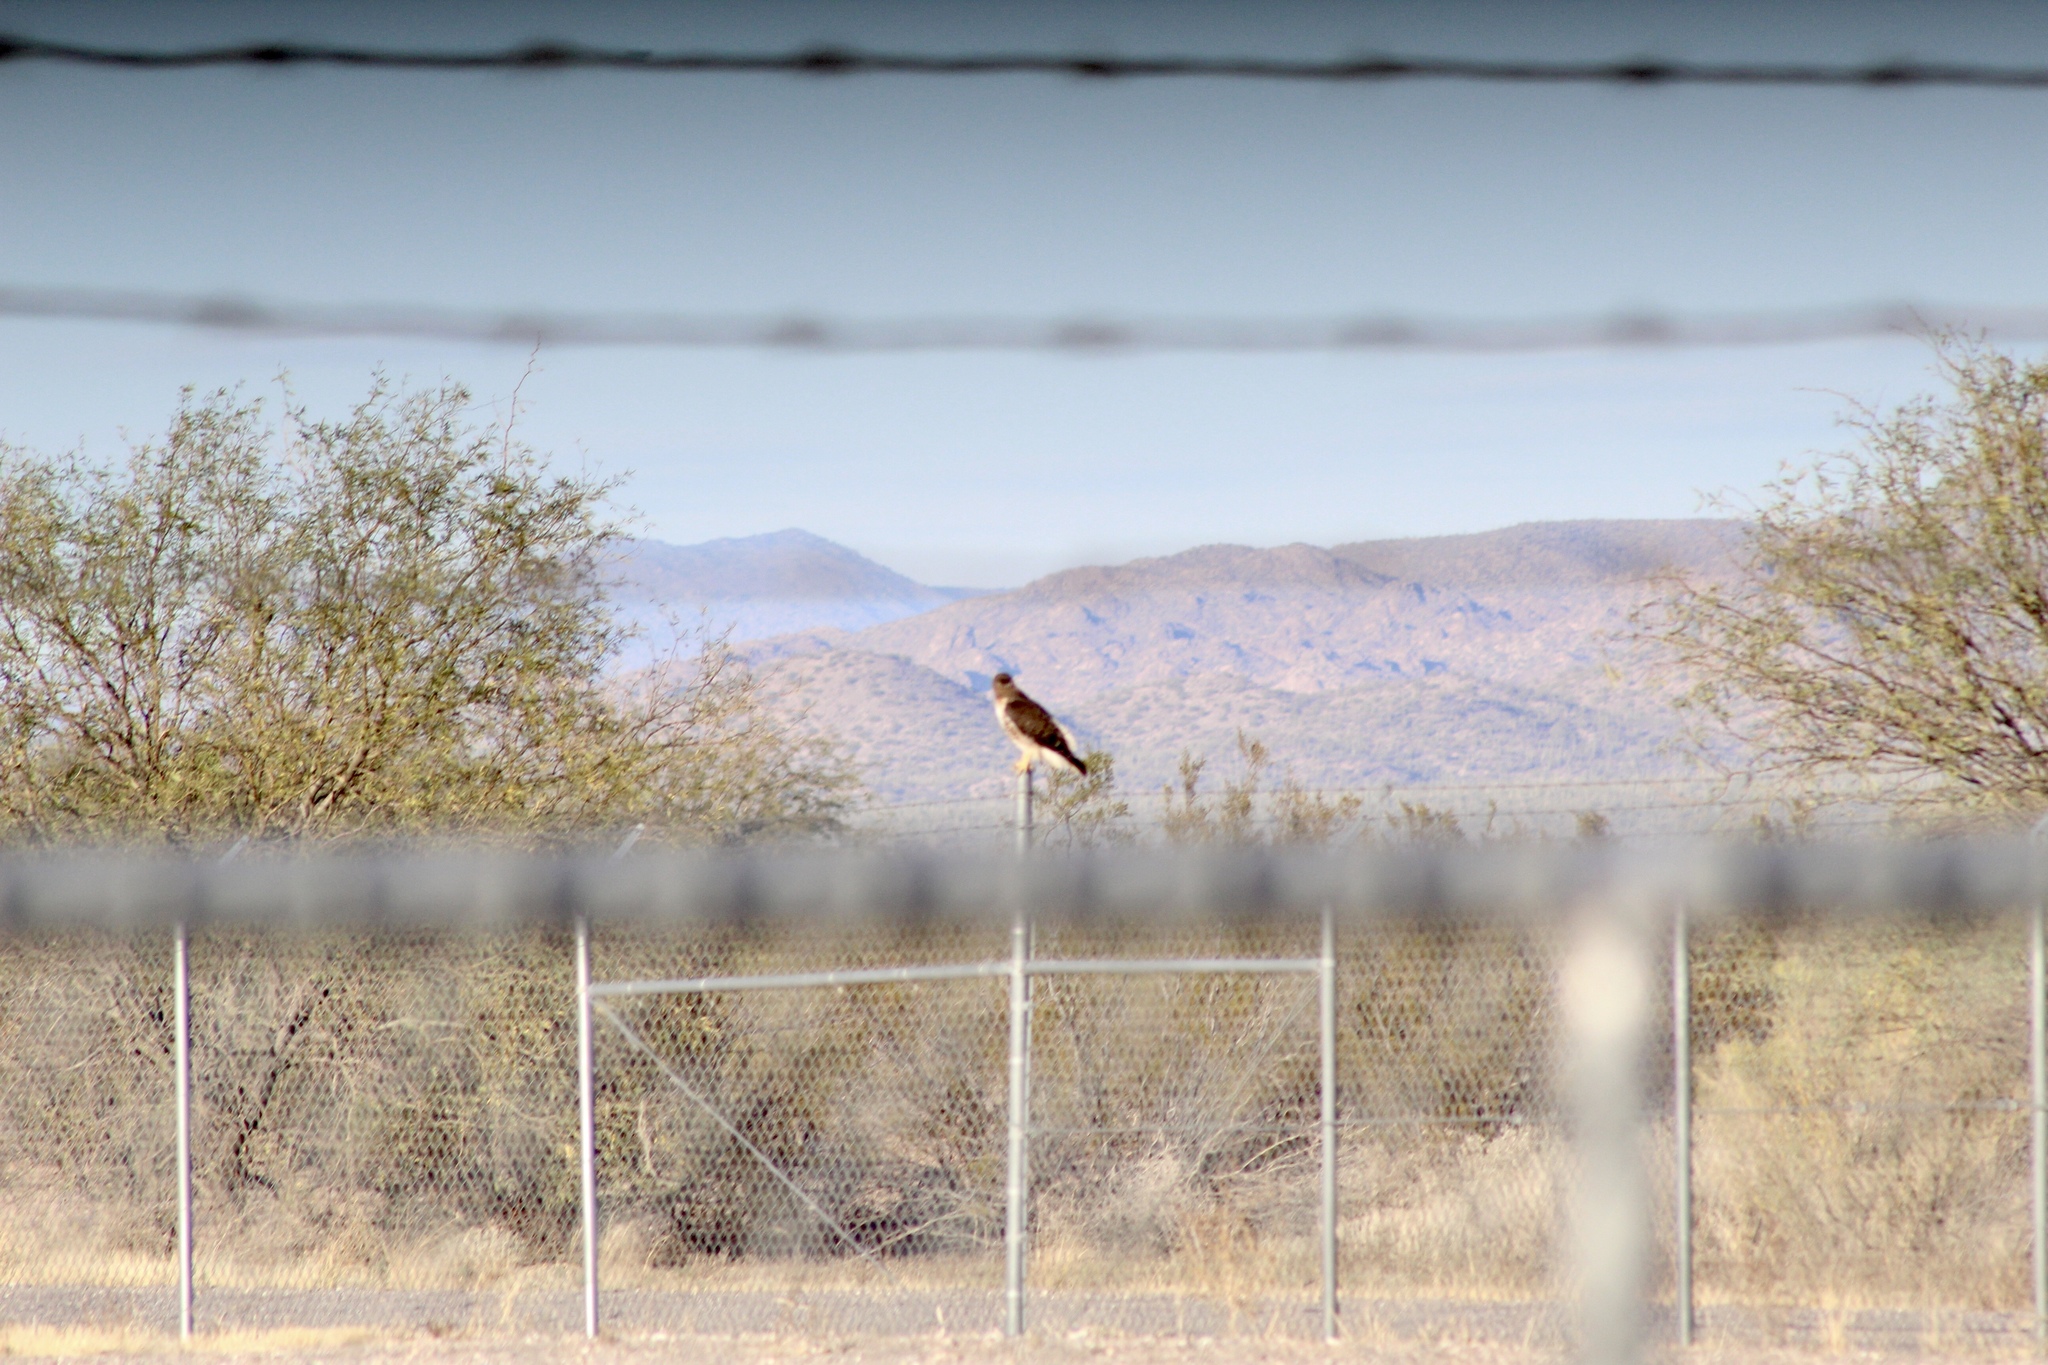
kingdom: Animalia
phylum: Chordata
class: Aves
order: Accipitriformes
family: Accipitridae
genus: Buteo
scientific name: Buteo jamaicensis
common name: Red-tailed hawk
